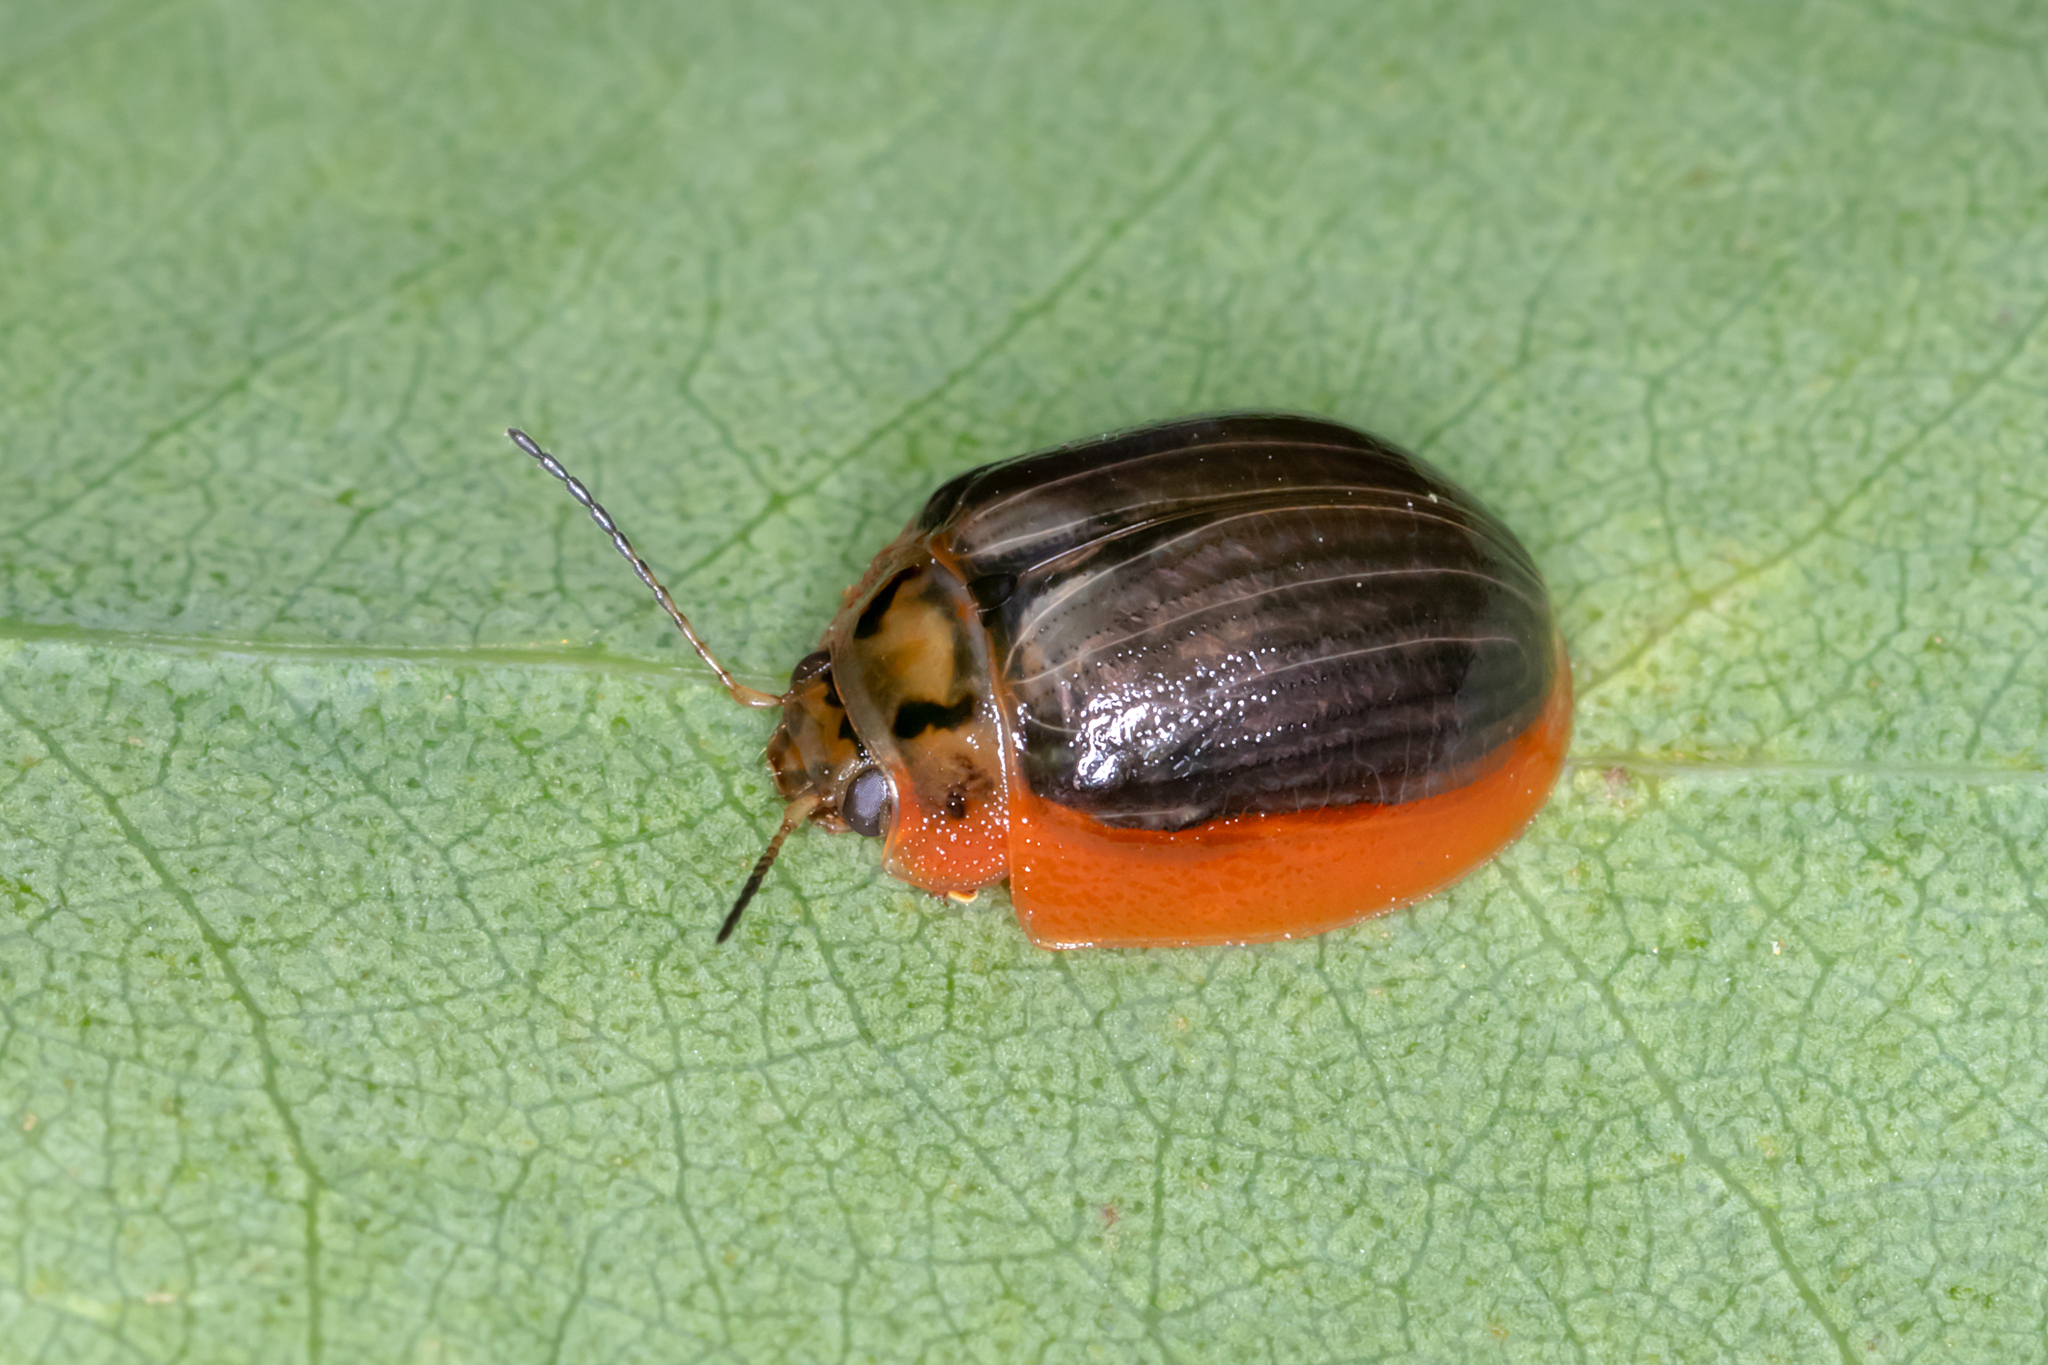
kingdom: Animalia
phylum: Arthropoda
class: Insecta
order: Coleoptera
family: Chrysomelidae
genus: Paropsisterna
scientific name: Paropsisterna agricola
